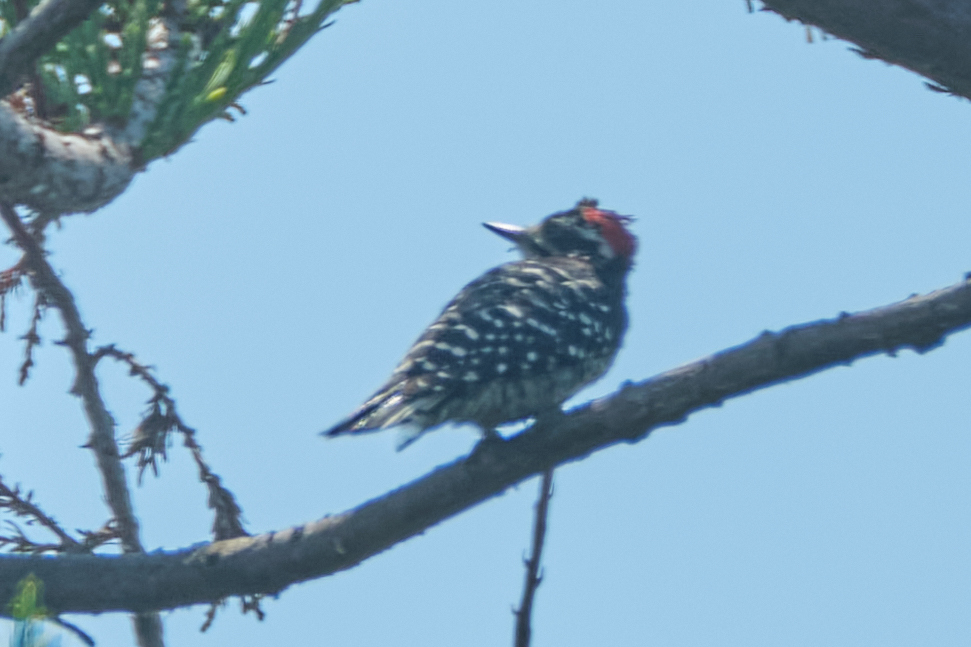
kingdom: Animalia
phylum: Chordata
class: Aves
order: Piciformes
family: Picidae
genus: Dryobates
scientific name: Dryobates nuttallii
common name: Nuttall's woodpecker
